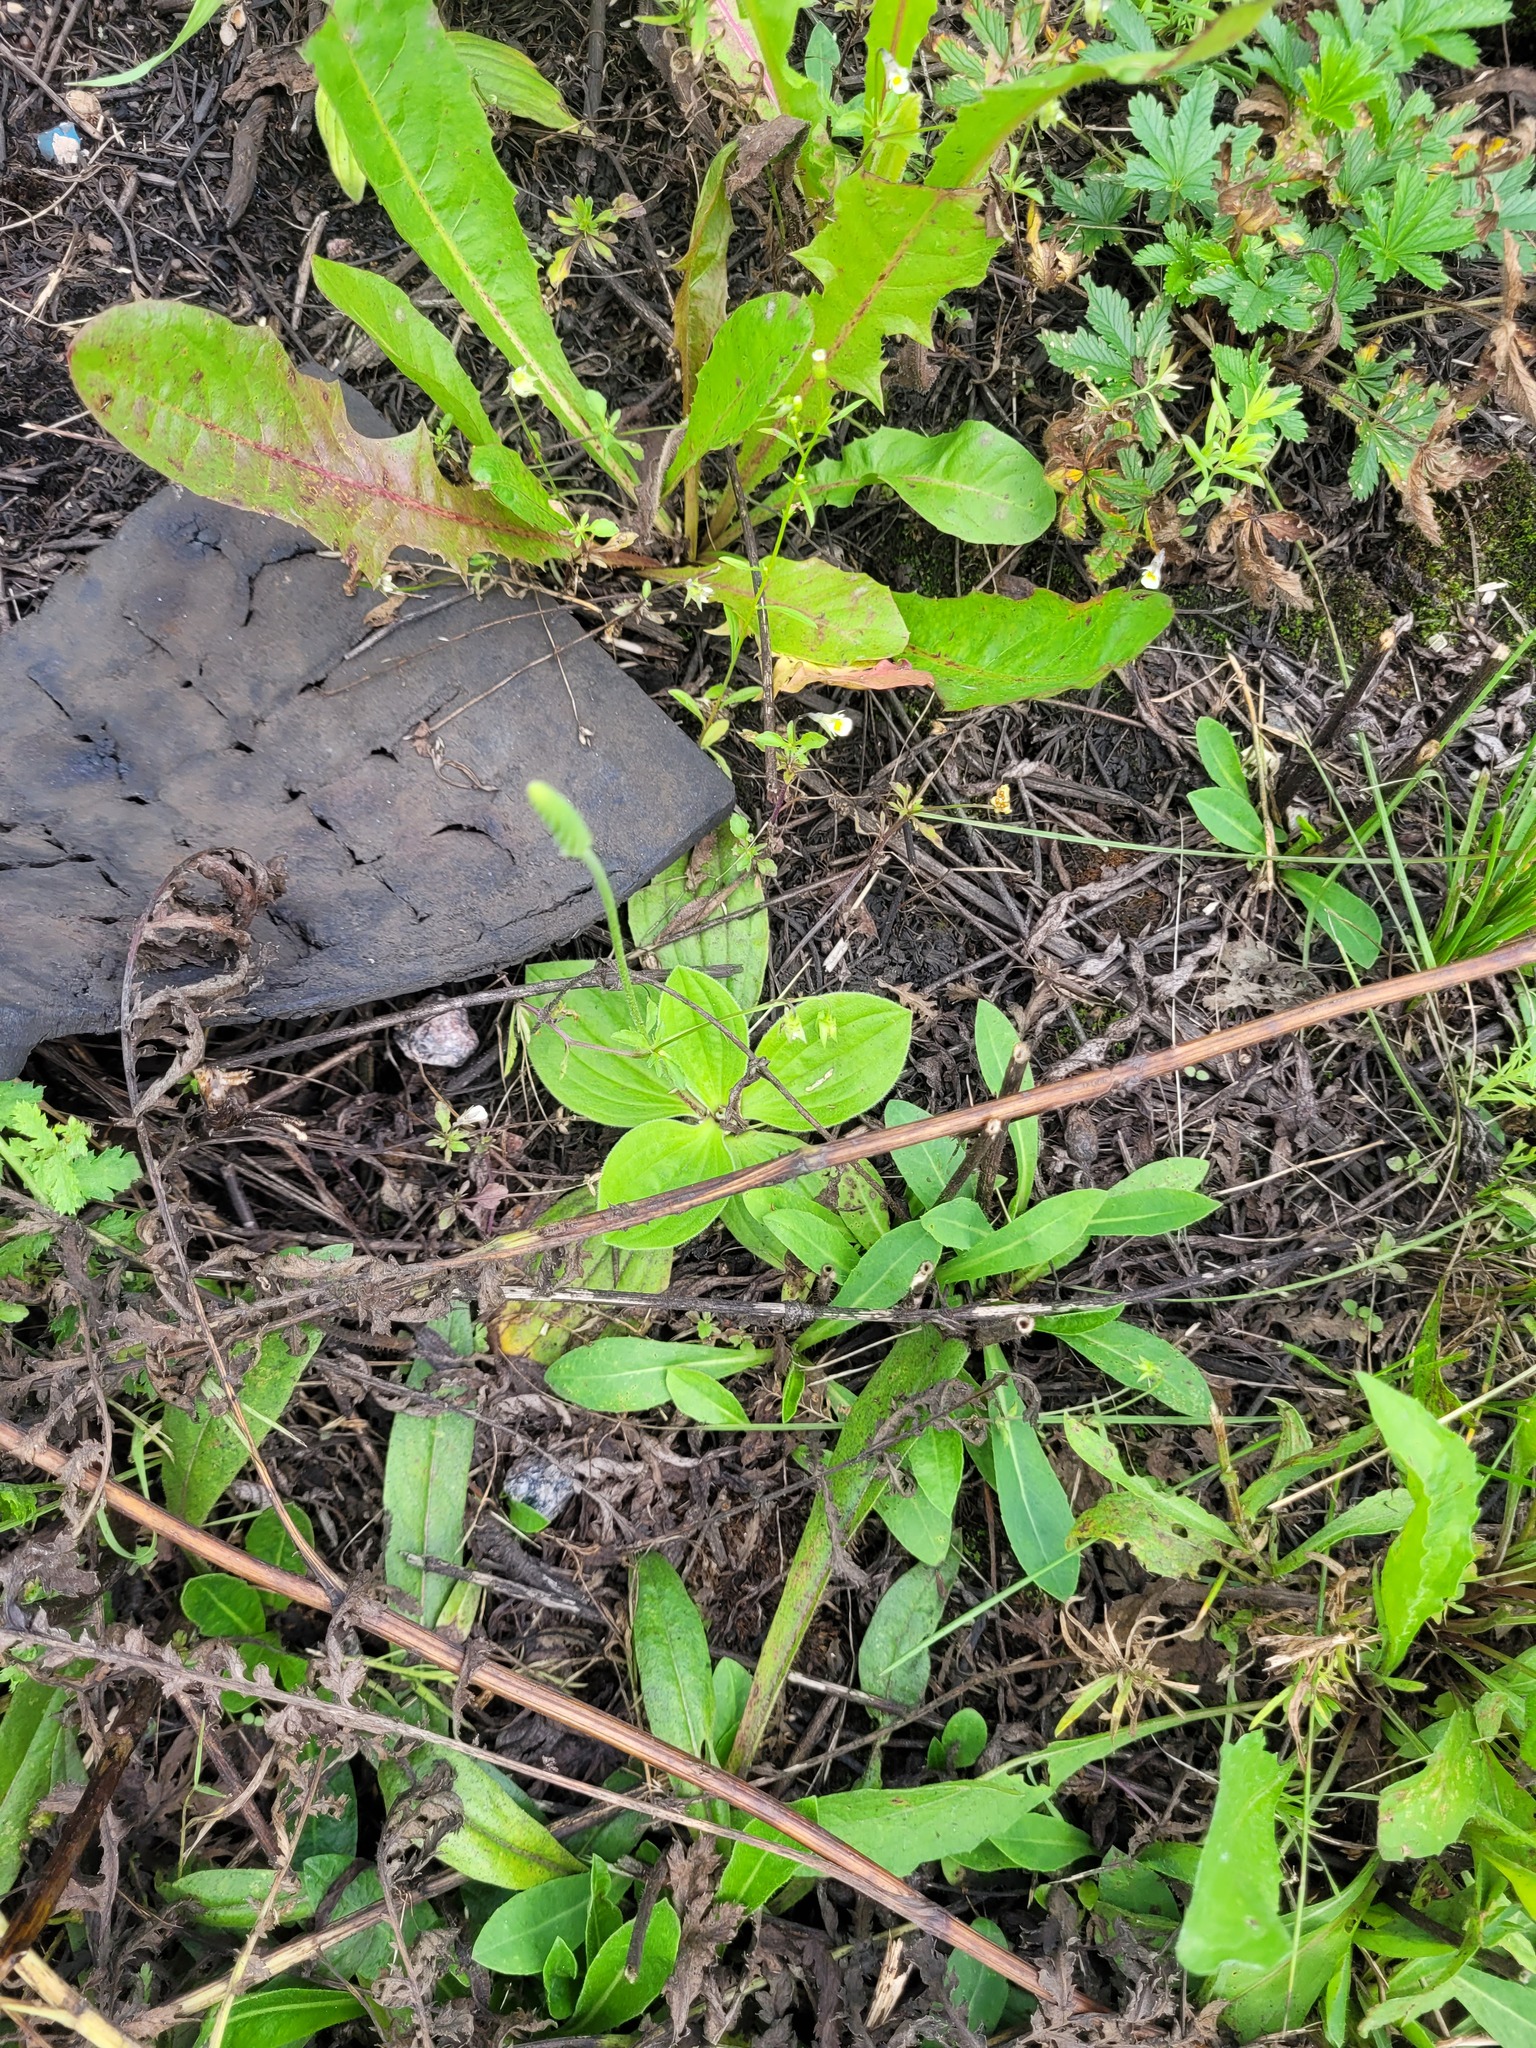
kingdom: Plantae
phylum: Tracheophyta
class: Magnoliopsida
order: Lamiales
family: Plantaginaceae
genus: Plantago
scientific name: Plantago media
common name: Hoary plantain
